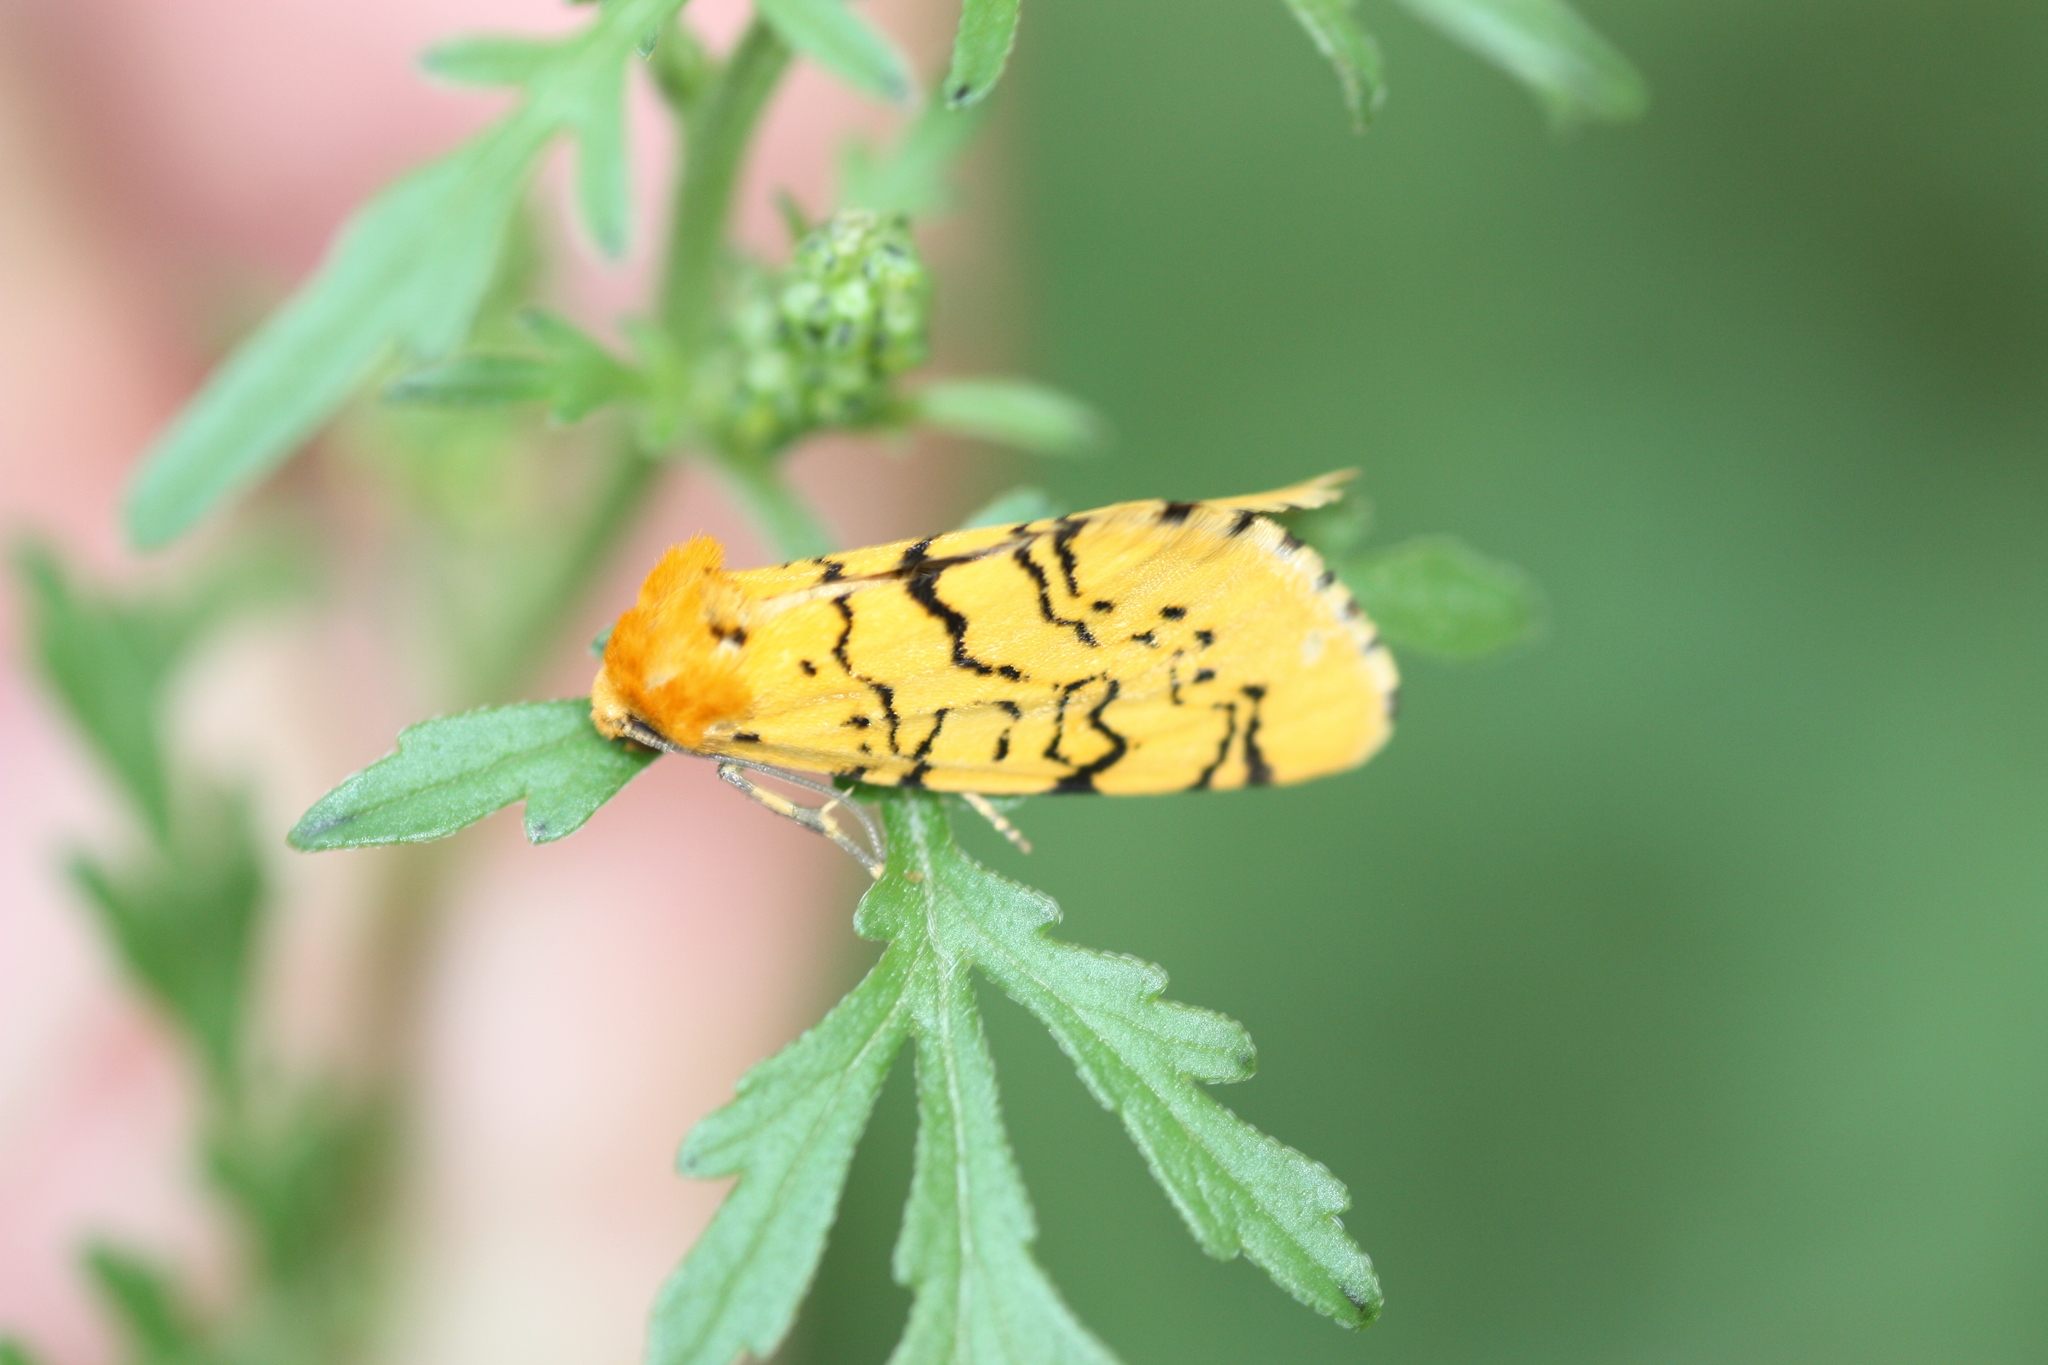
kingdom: Animalia
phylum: Arthropoda
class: Insecta
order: Lepidoptera
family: Noctuidae
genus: Chrysoecia
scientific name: Chrysoecia atrolinea
